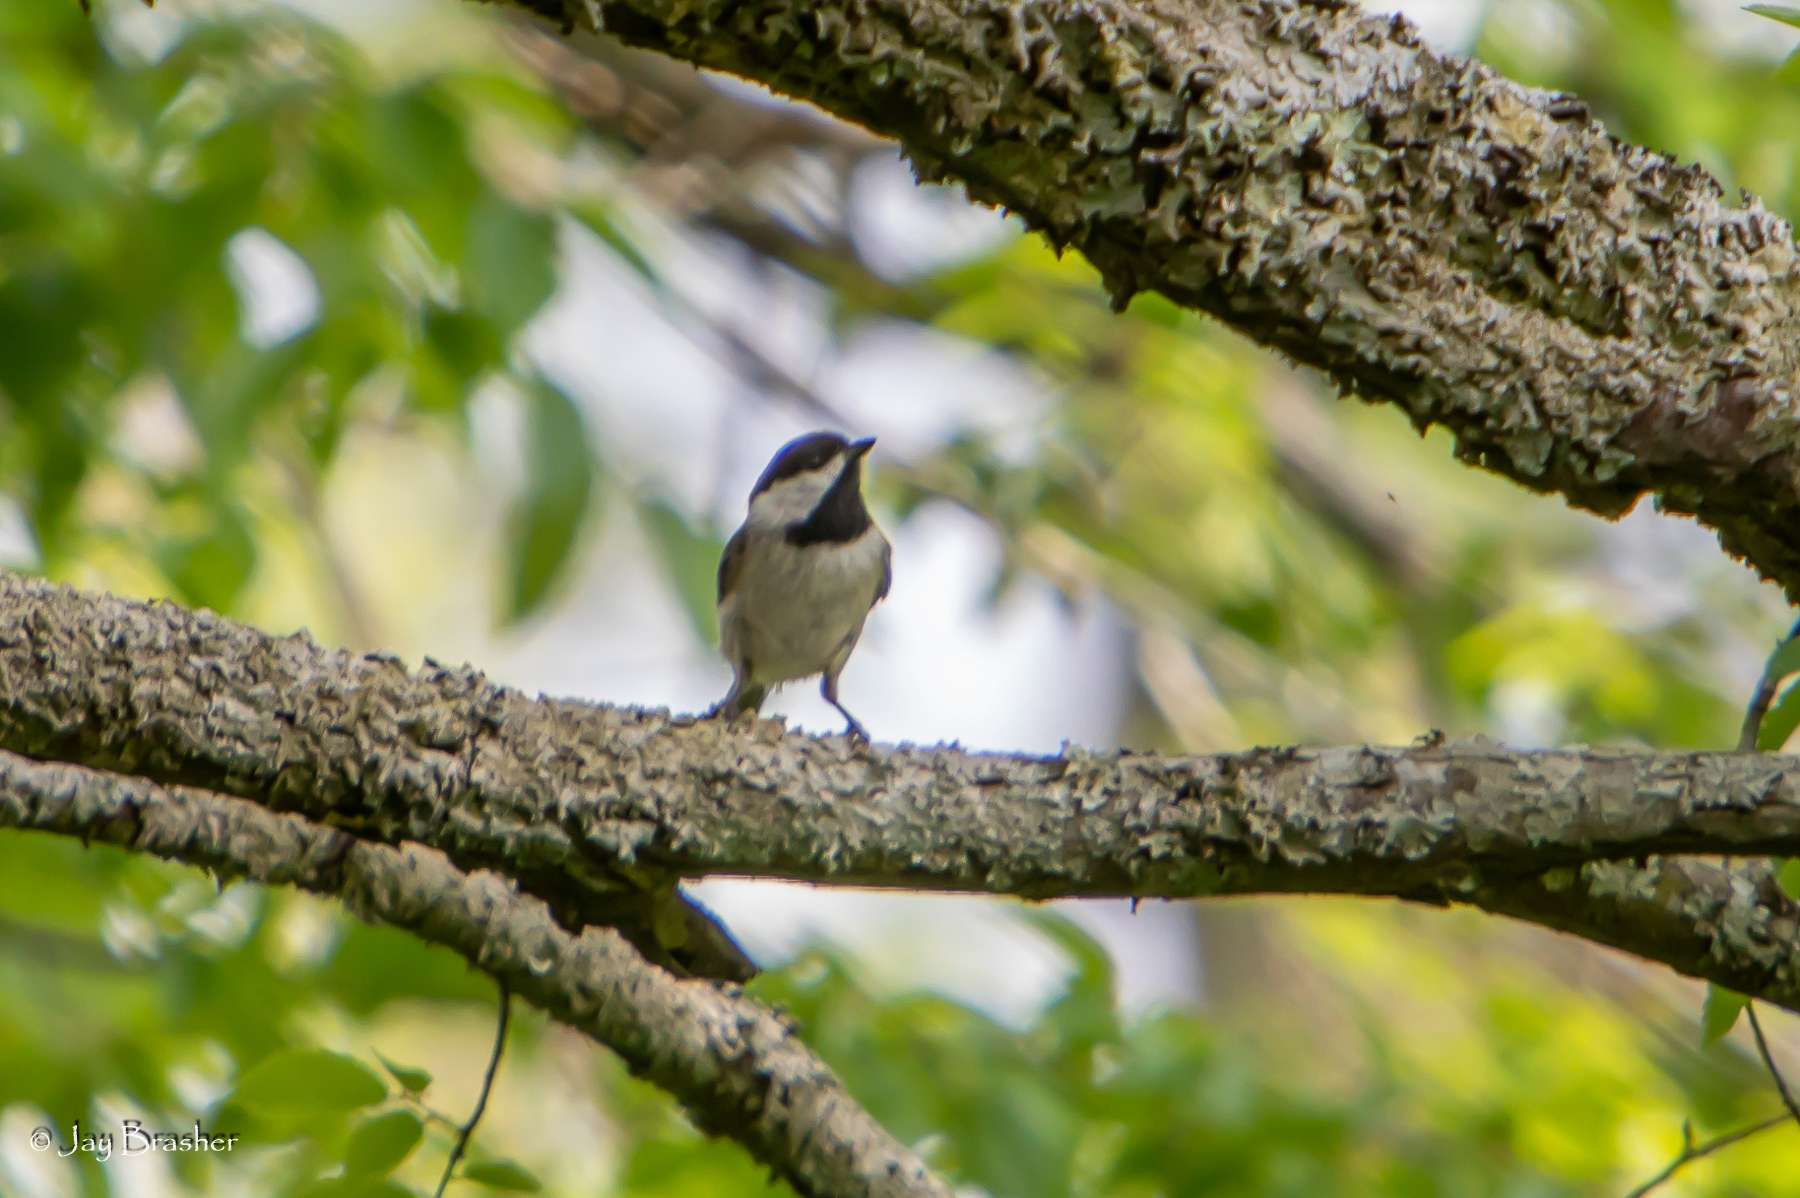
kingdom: Animalia
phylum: Chordata
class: Aves
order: Passeriformes
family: Paridae
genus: Poecile
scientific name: Poecile carolinensis
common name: Carolina chickadee
